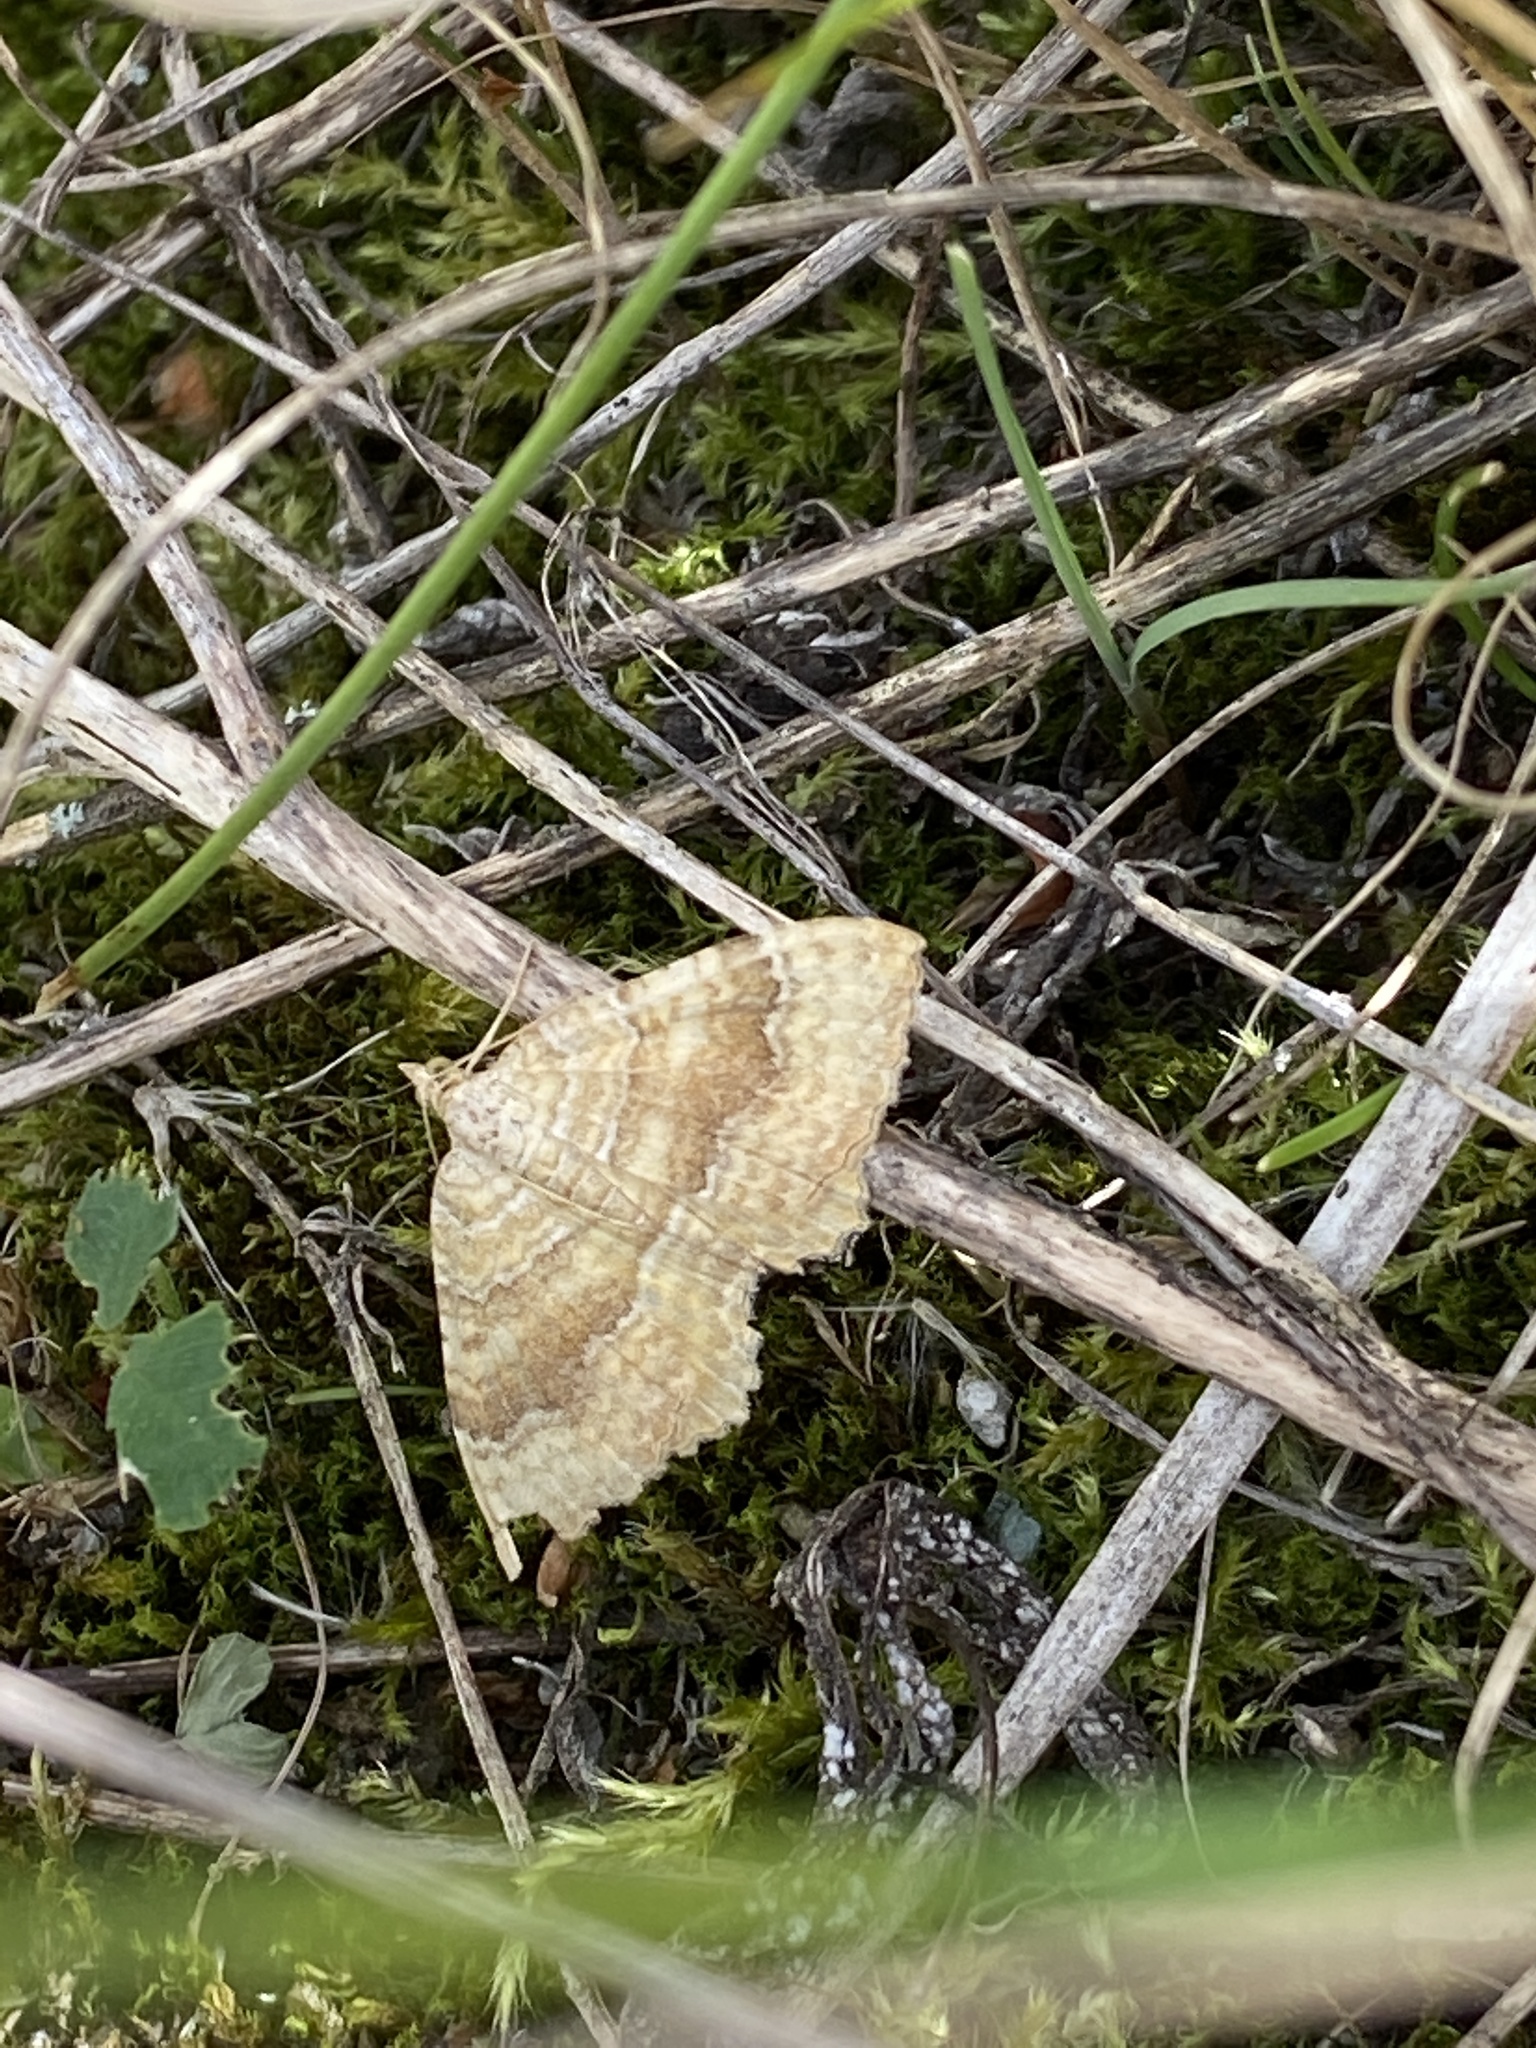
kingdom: Animalia
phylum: Arthropoda
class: Insecta
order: Lepidoptera
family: Geometridae
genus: Camptogramma
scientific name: Camptogramma bilineata
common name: Yellow shell
